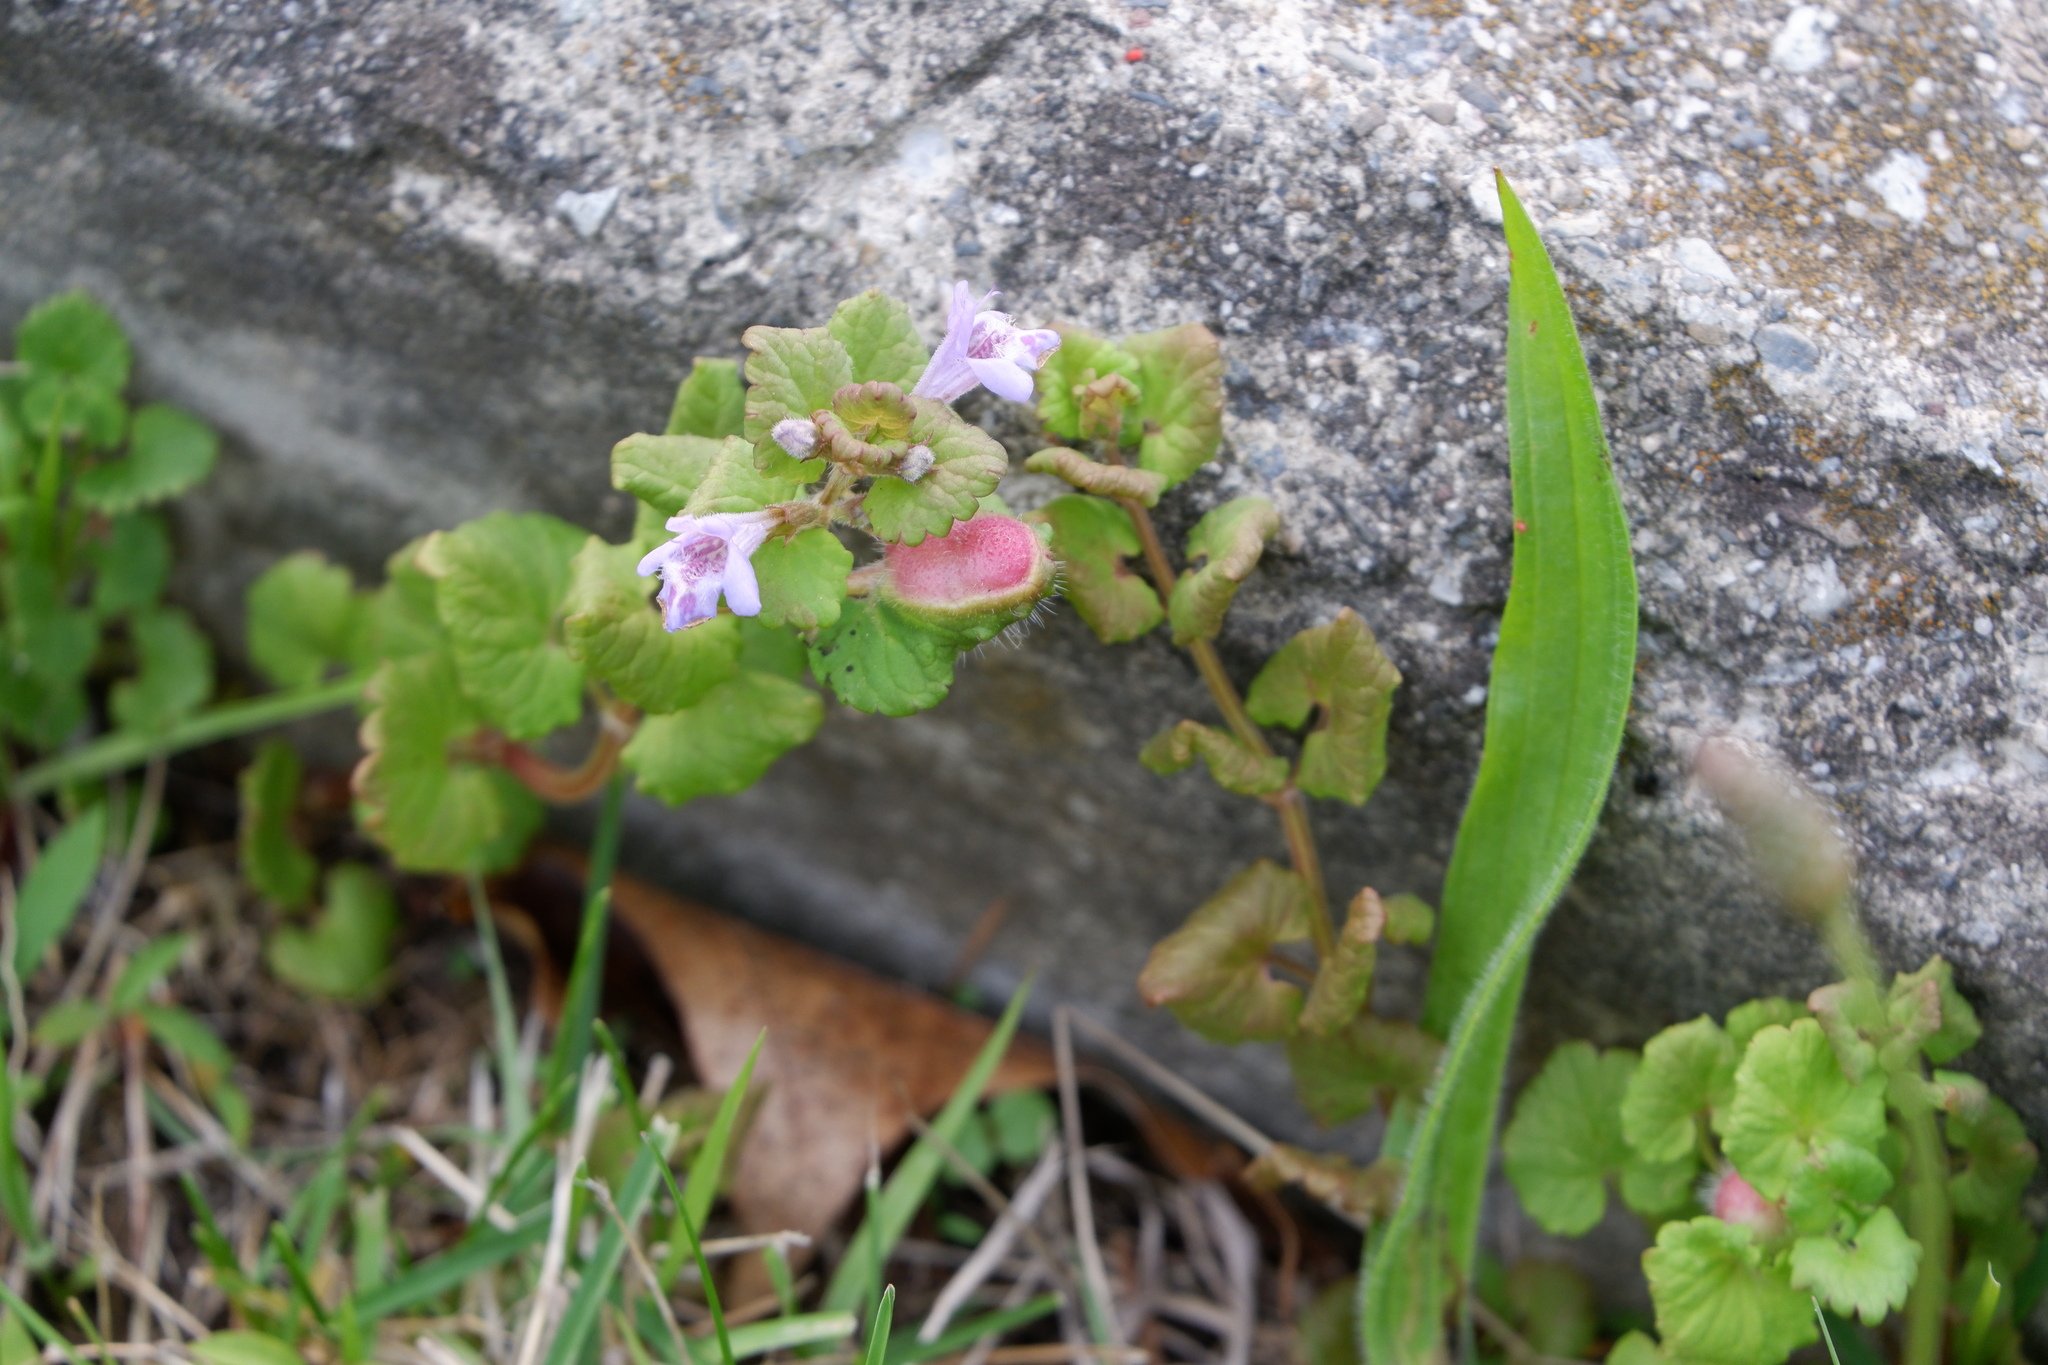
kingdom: Animalia
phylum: Arthropoda
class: Insecta
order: Hymenoptera
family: Cynipidae
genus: Liposthenes
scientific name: Liposthenes glechomae
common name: Gall wasp
